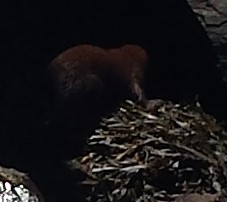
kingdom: Animalia
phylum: Chordata
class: Mammalia
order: Carnivora
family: Mustelidae
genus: Mustela
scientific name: Mustela
